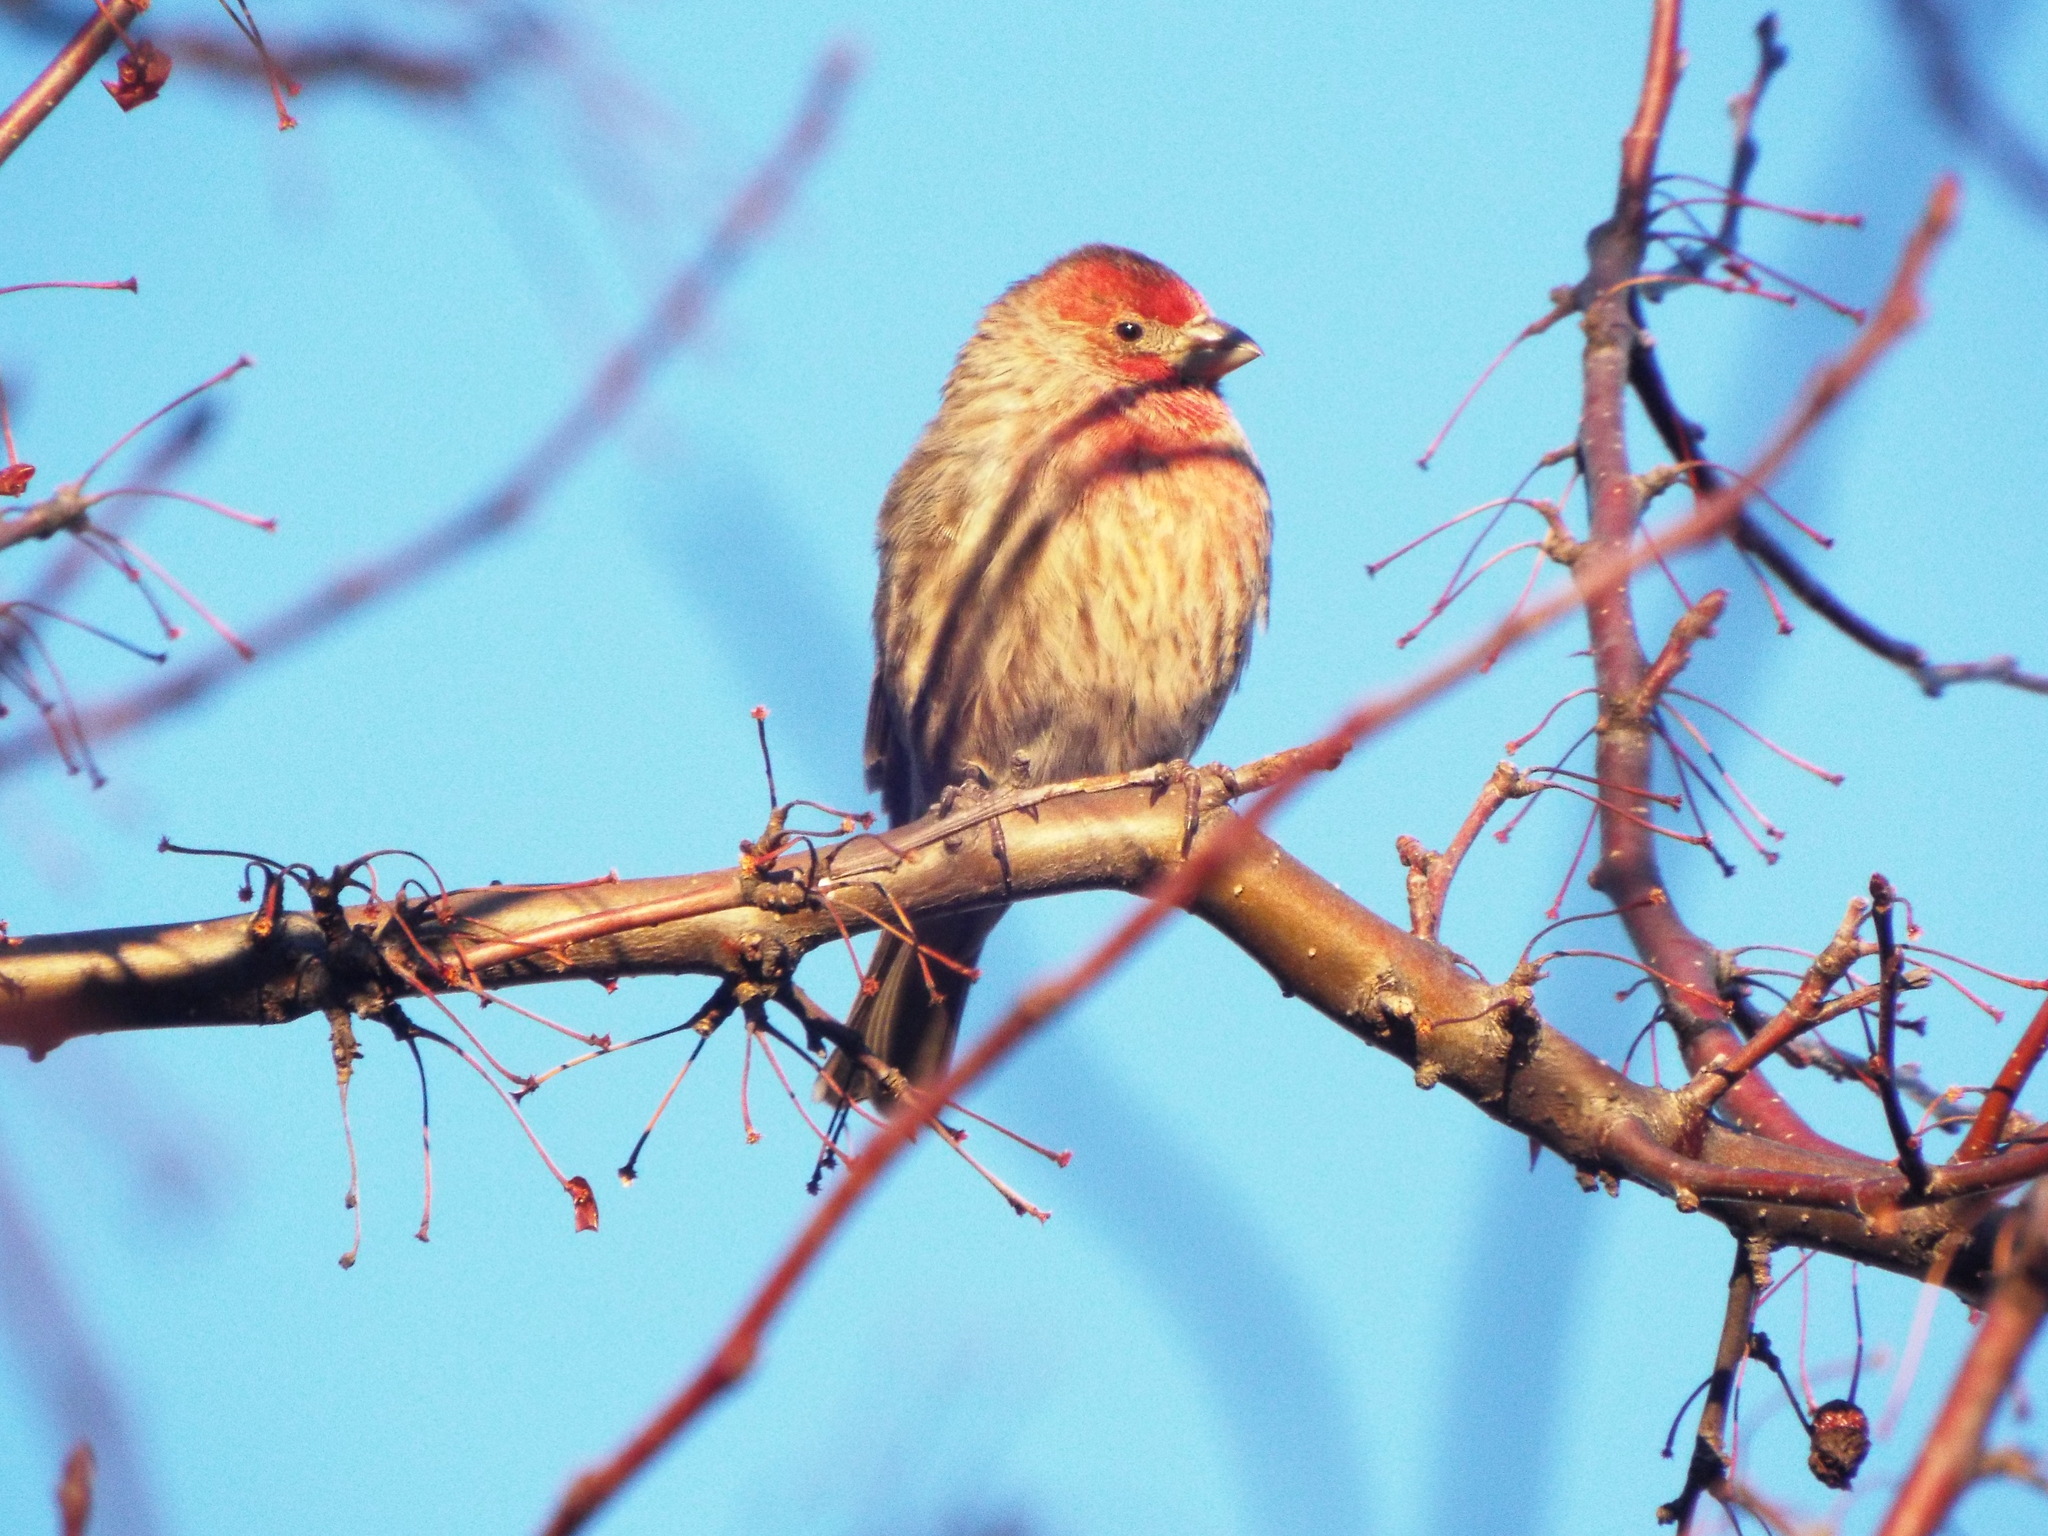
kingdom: Animalia
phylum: Chordata
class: Aves
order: Passeriformes
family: Fringillidae
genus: Haemorhous
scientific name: Haemorhous mexicanus
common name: House finch
